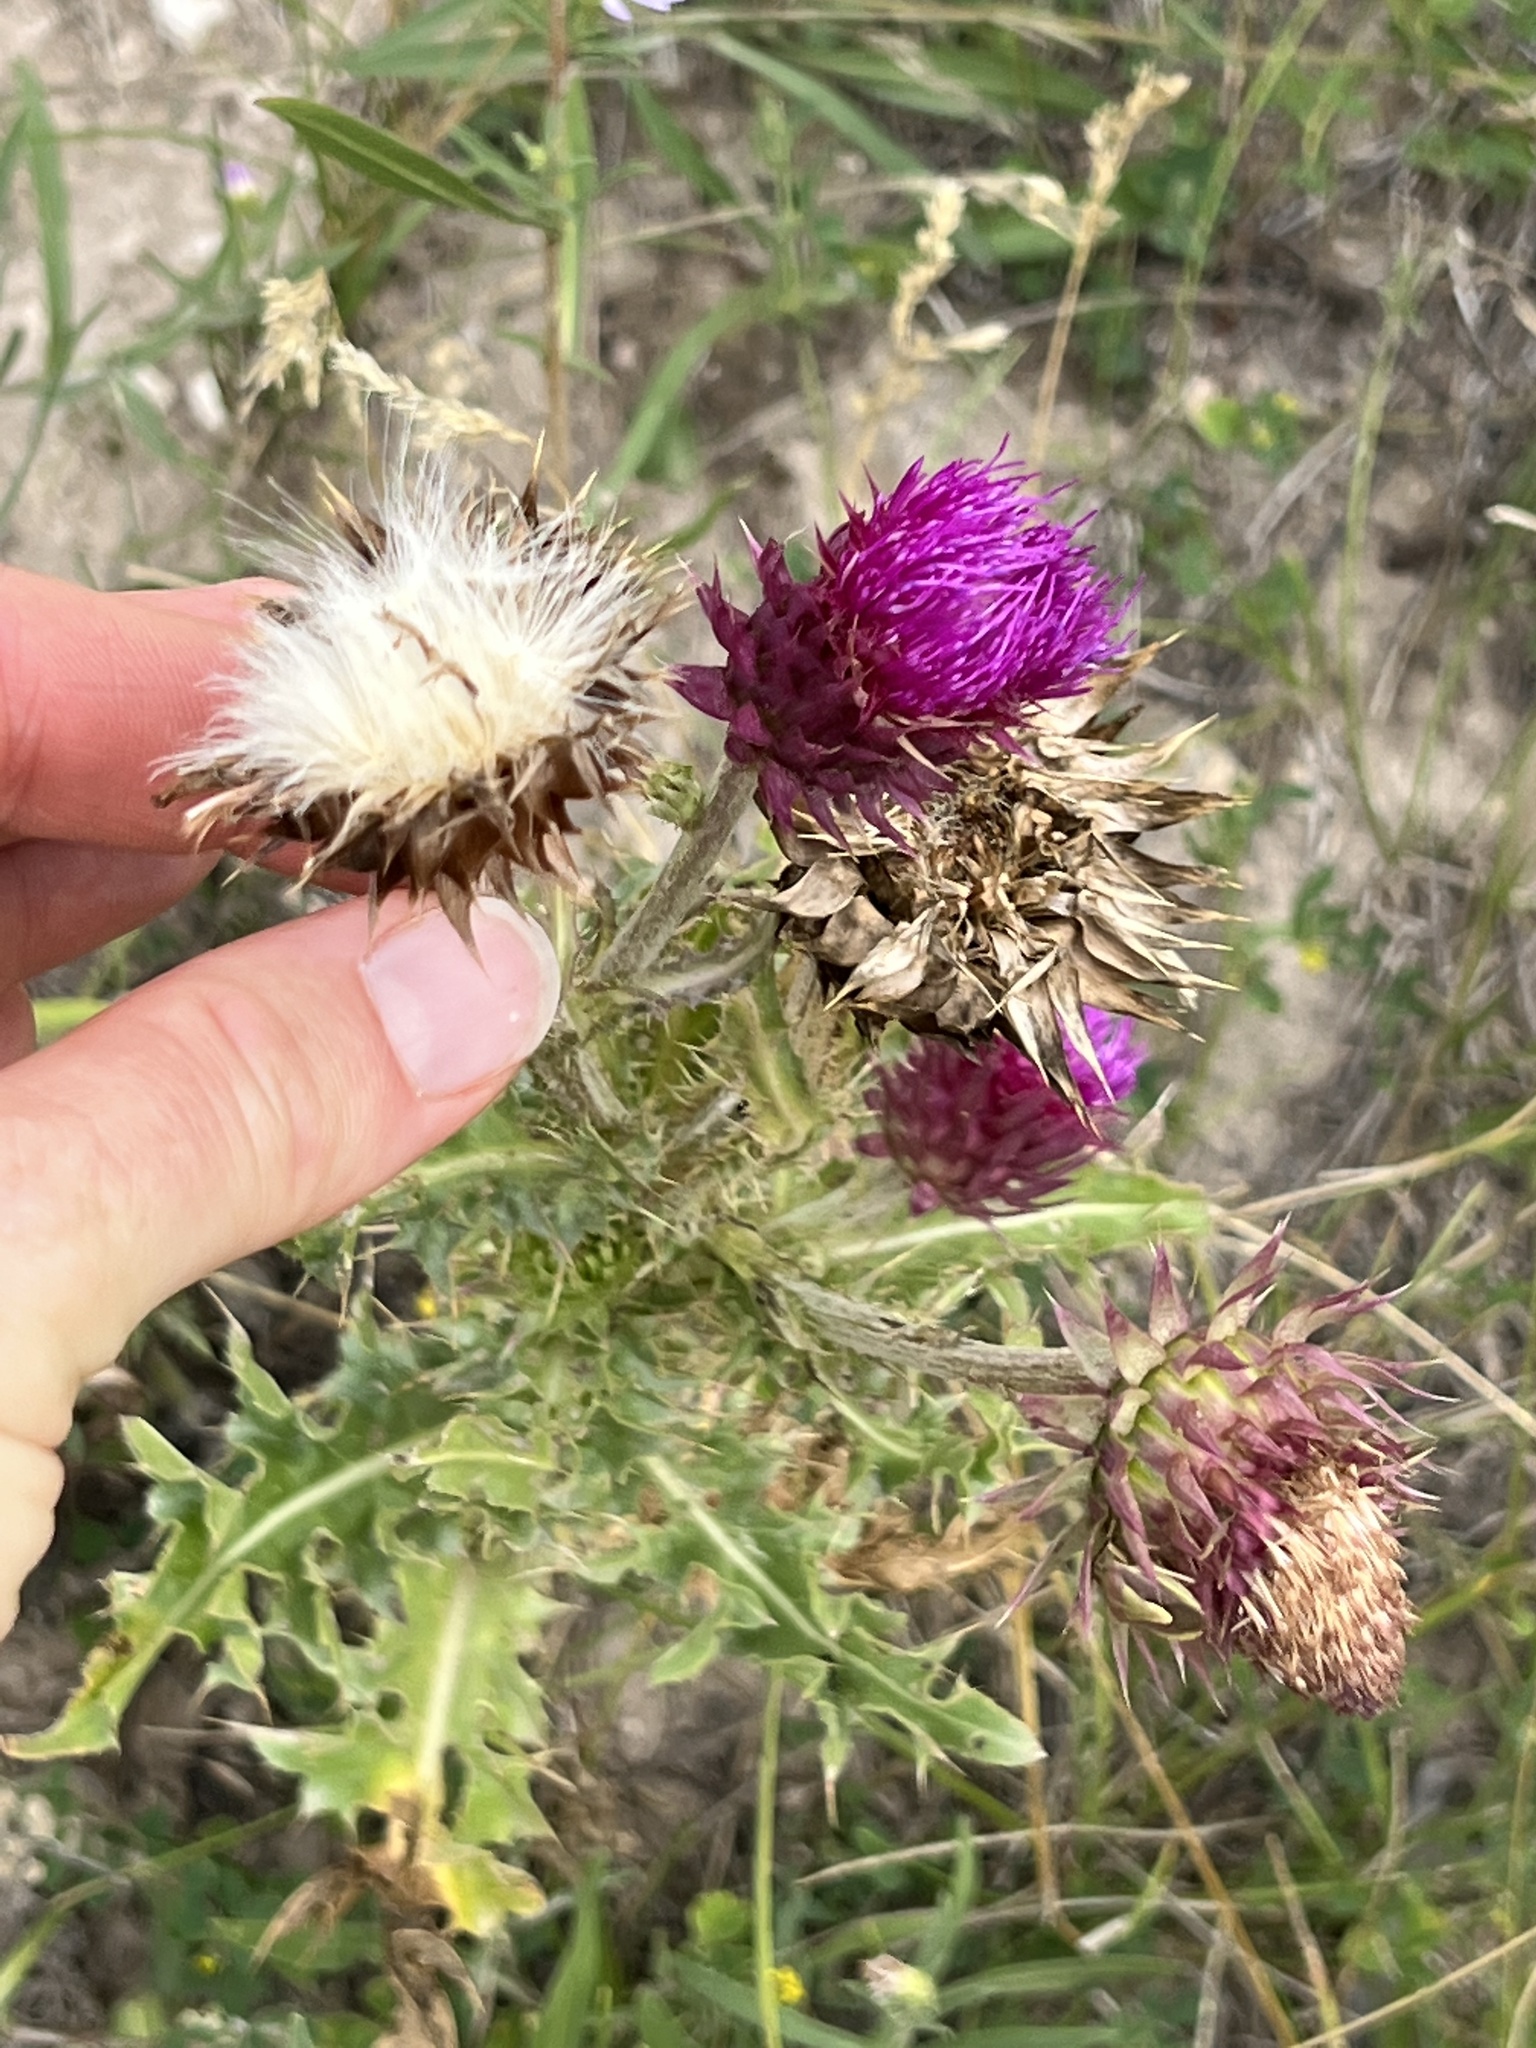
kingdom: Plantae
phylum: Tracheophyta
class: Magnoliopsida
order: Asterales
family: Asteraceae
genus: Carduus
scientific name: Carduus nutans
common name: Musk thistle
